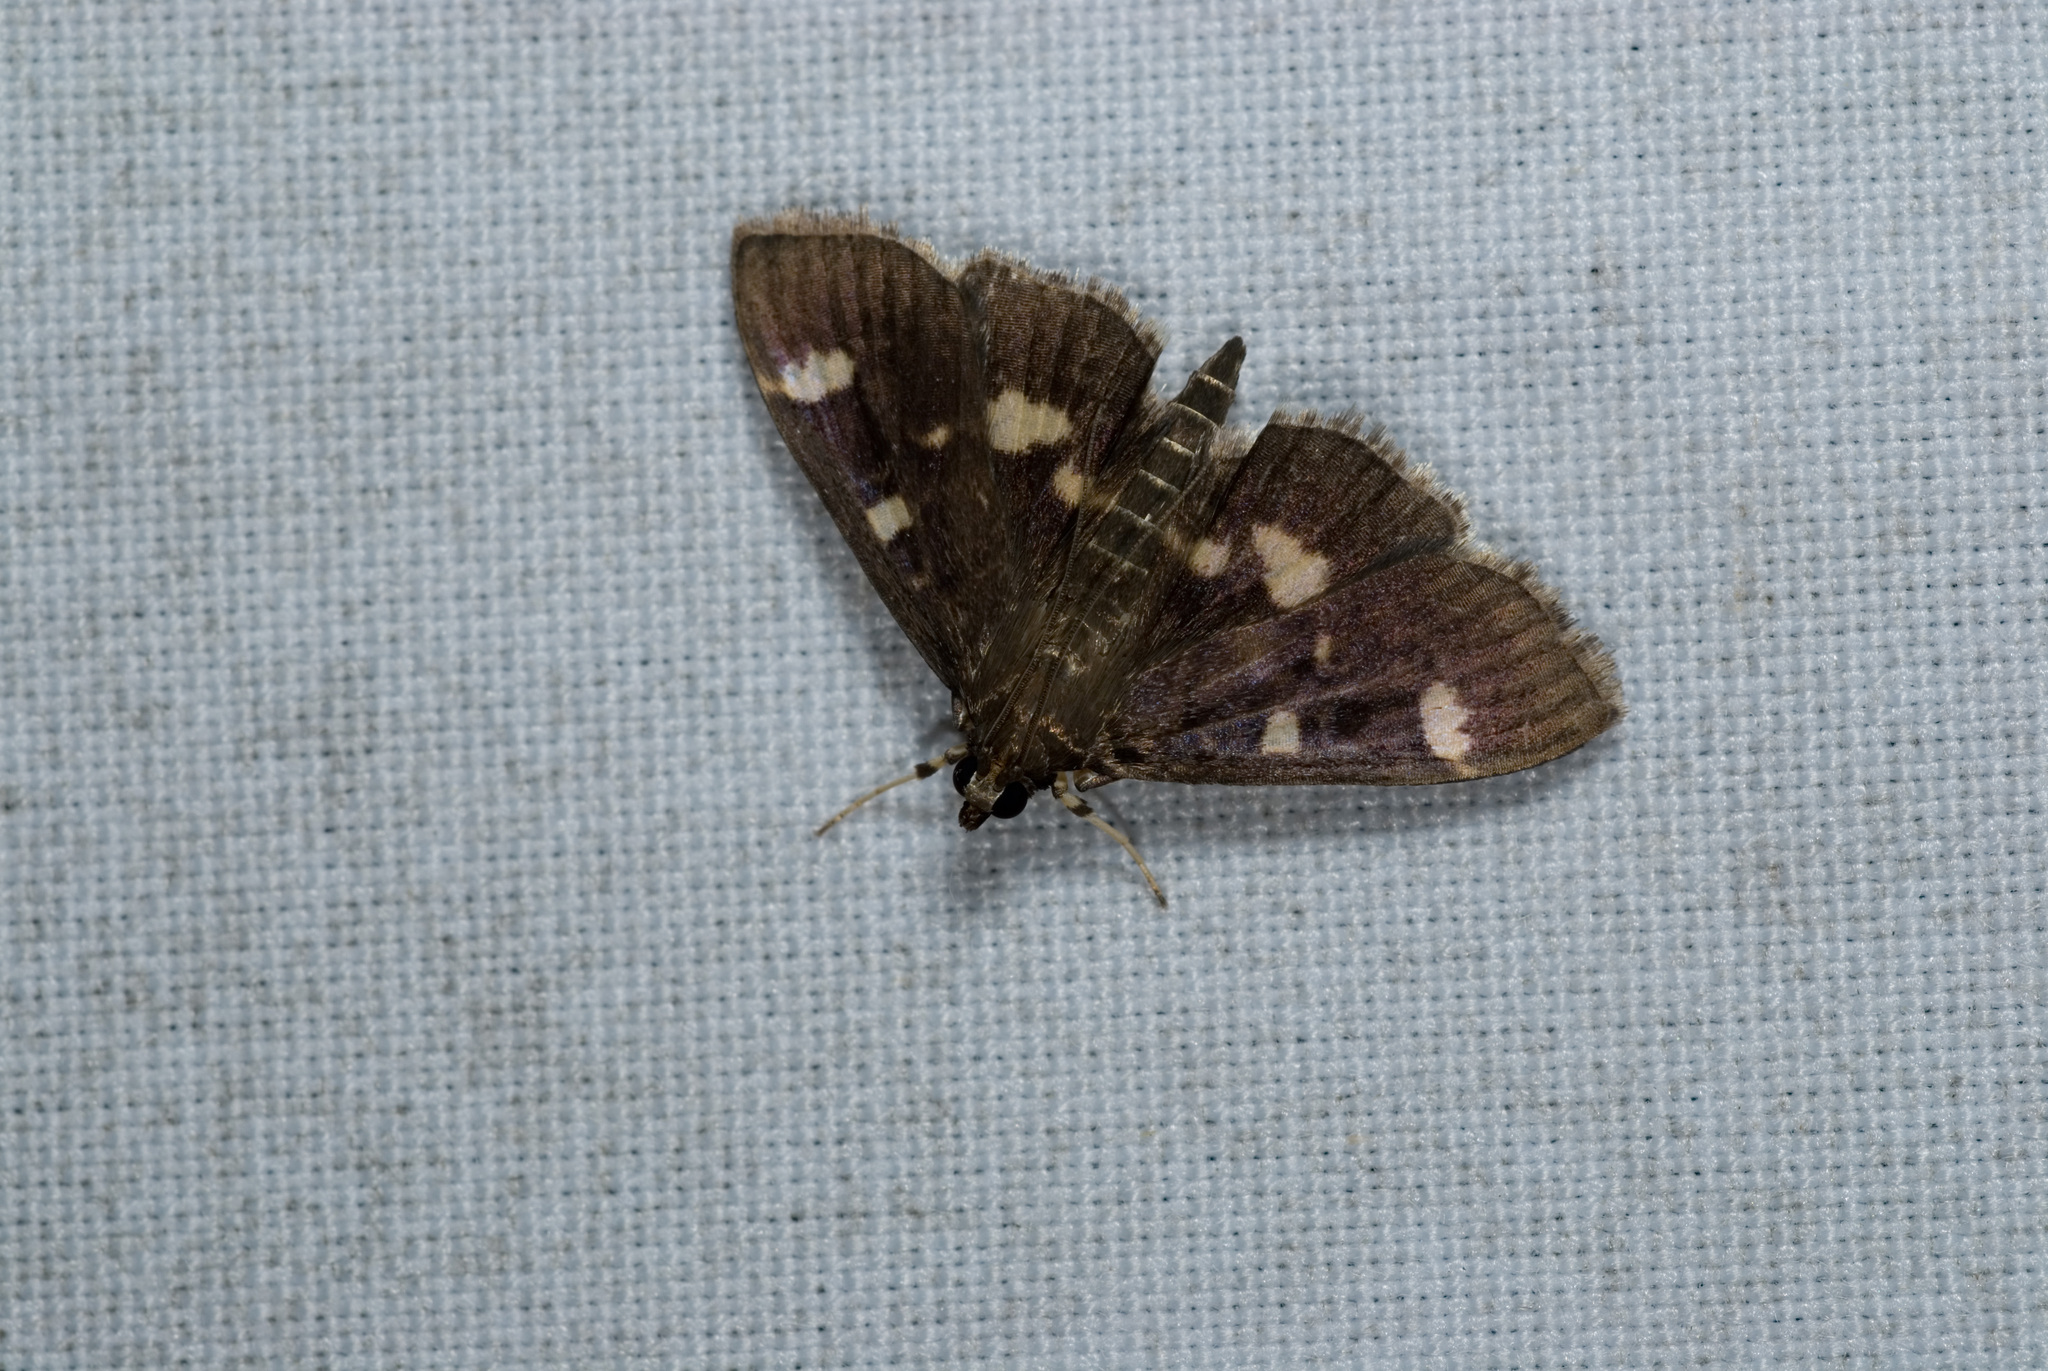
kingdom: Animalia
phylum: Arthropoda
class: Insecta
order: Lepidoptera
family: Crambidae
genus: Herpetogramma
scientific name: Herpetogramma luctuosalis
